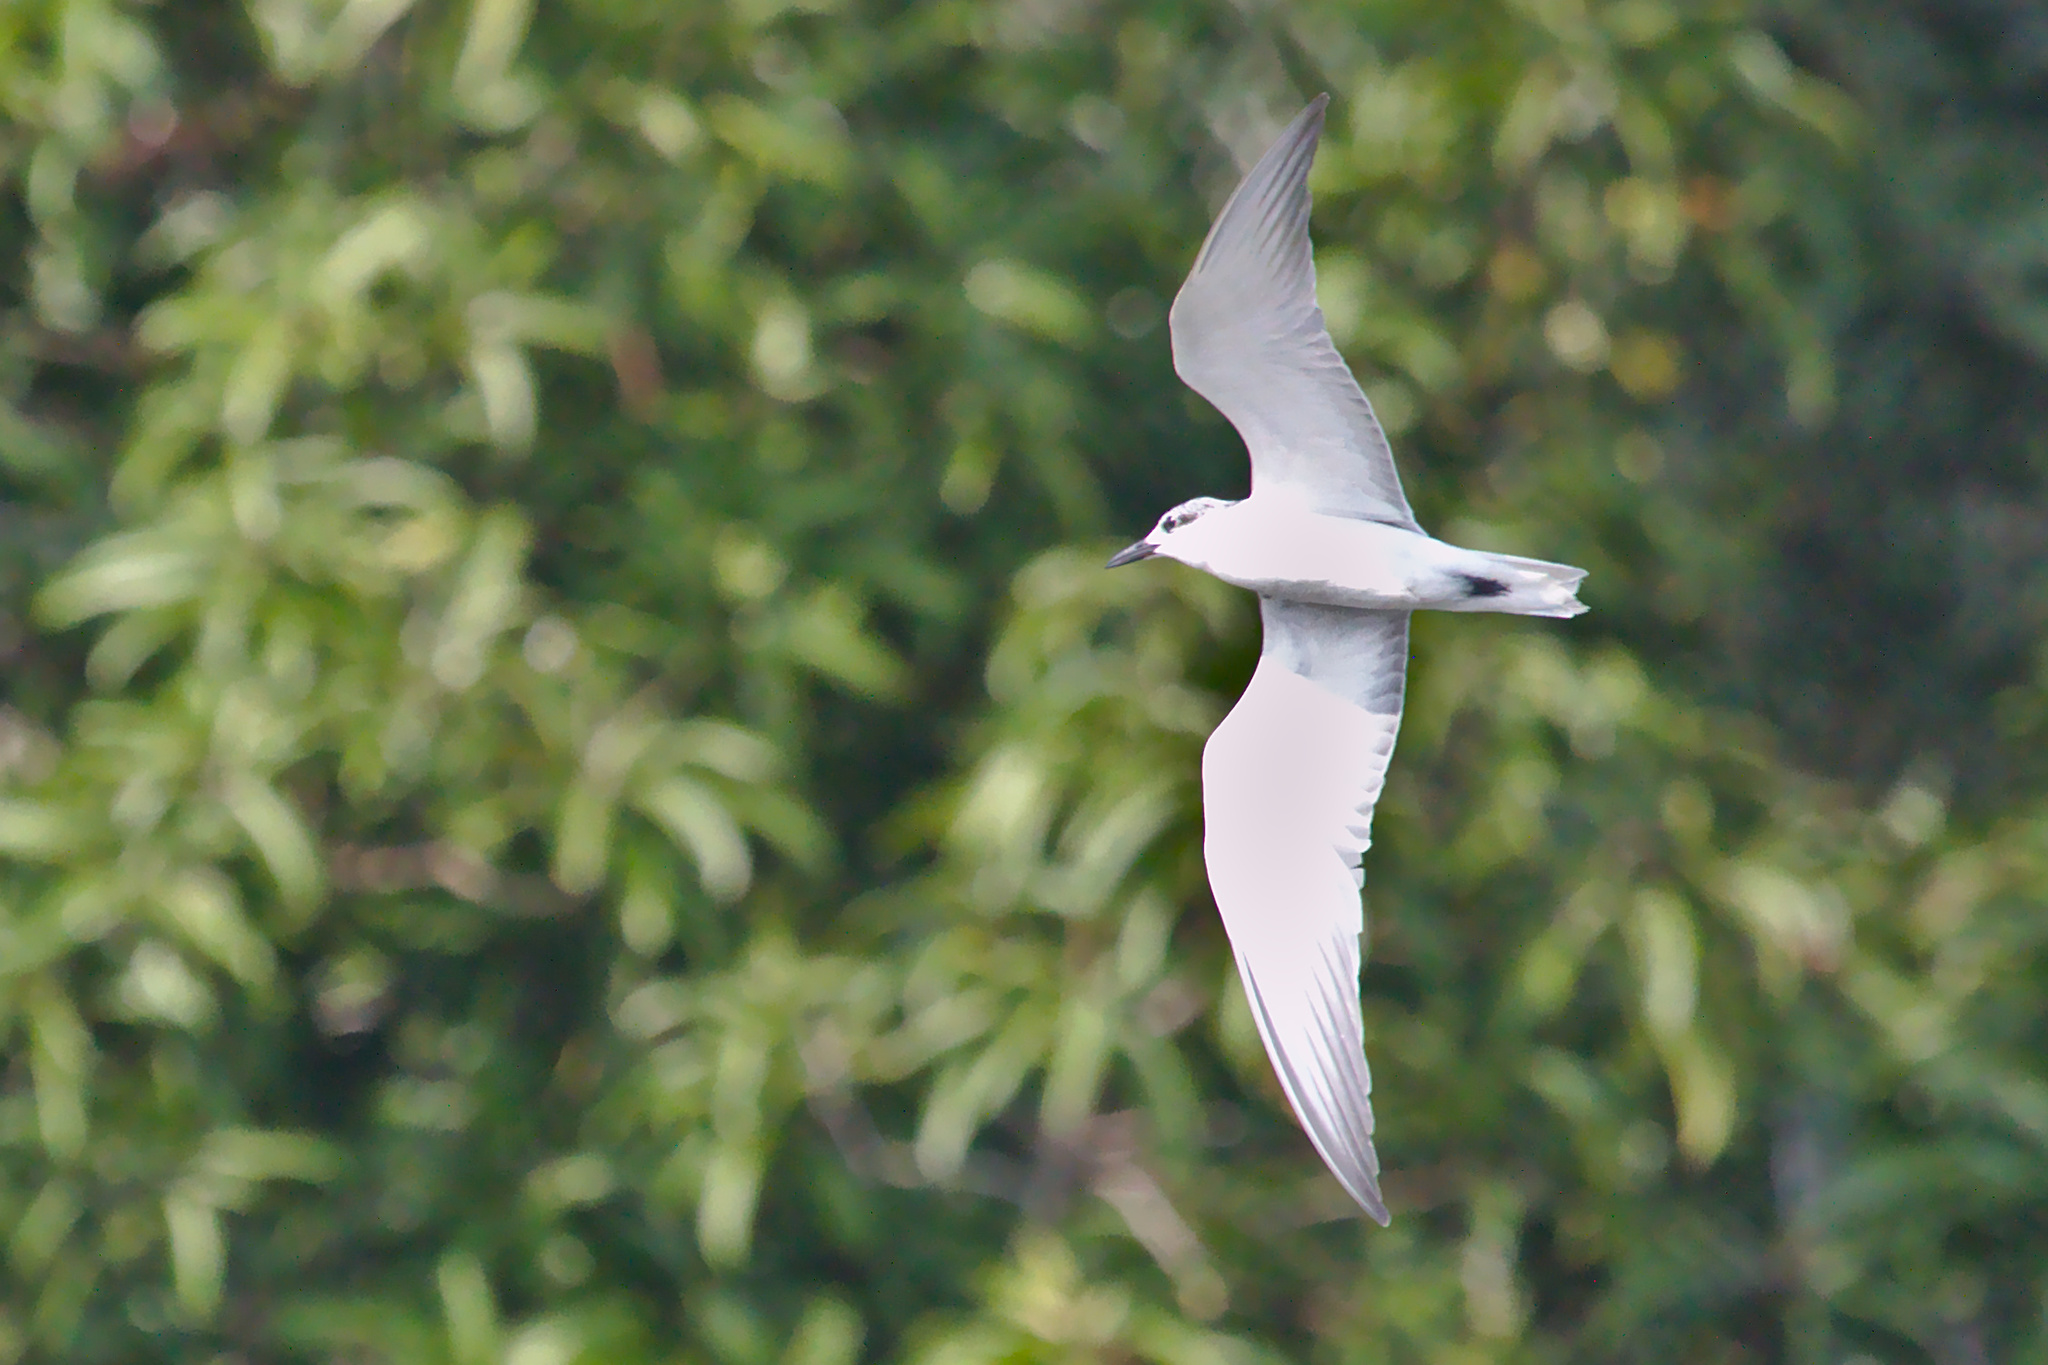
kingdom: Animalia
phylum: Chordata
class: Aves
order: Charadriiformes
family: Laridae
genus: Chlidonias
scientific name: Chlidonias hybrida
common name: Whiskered tern
